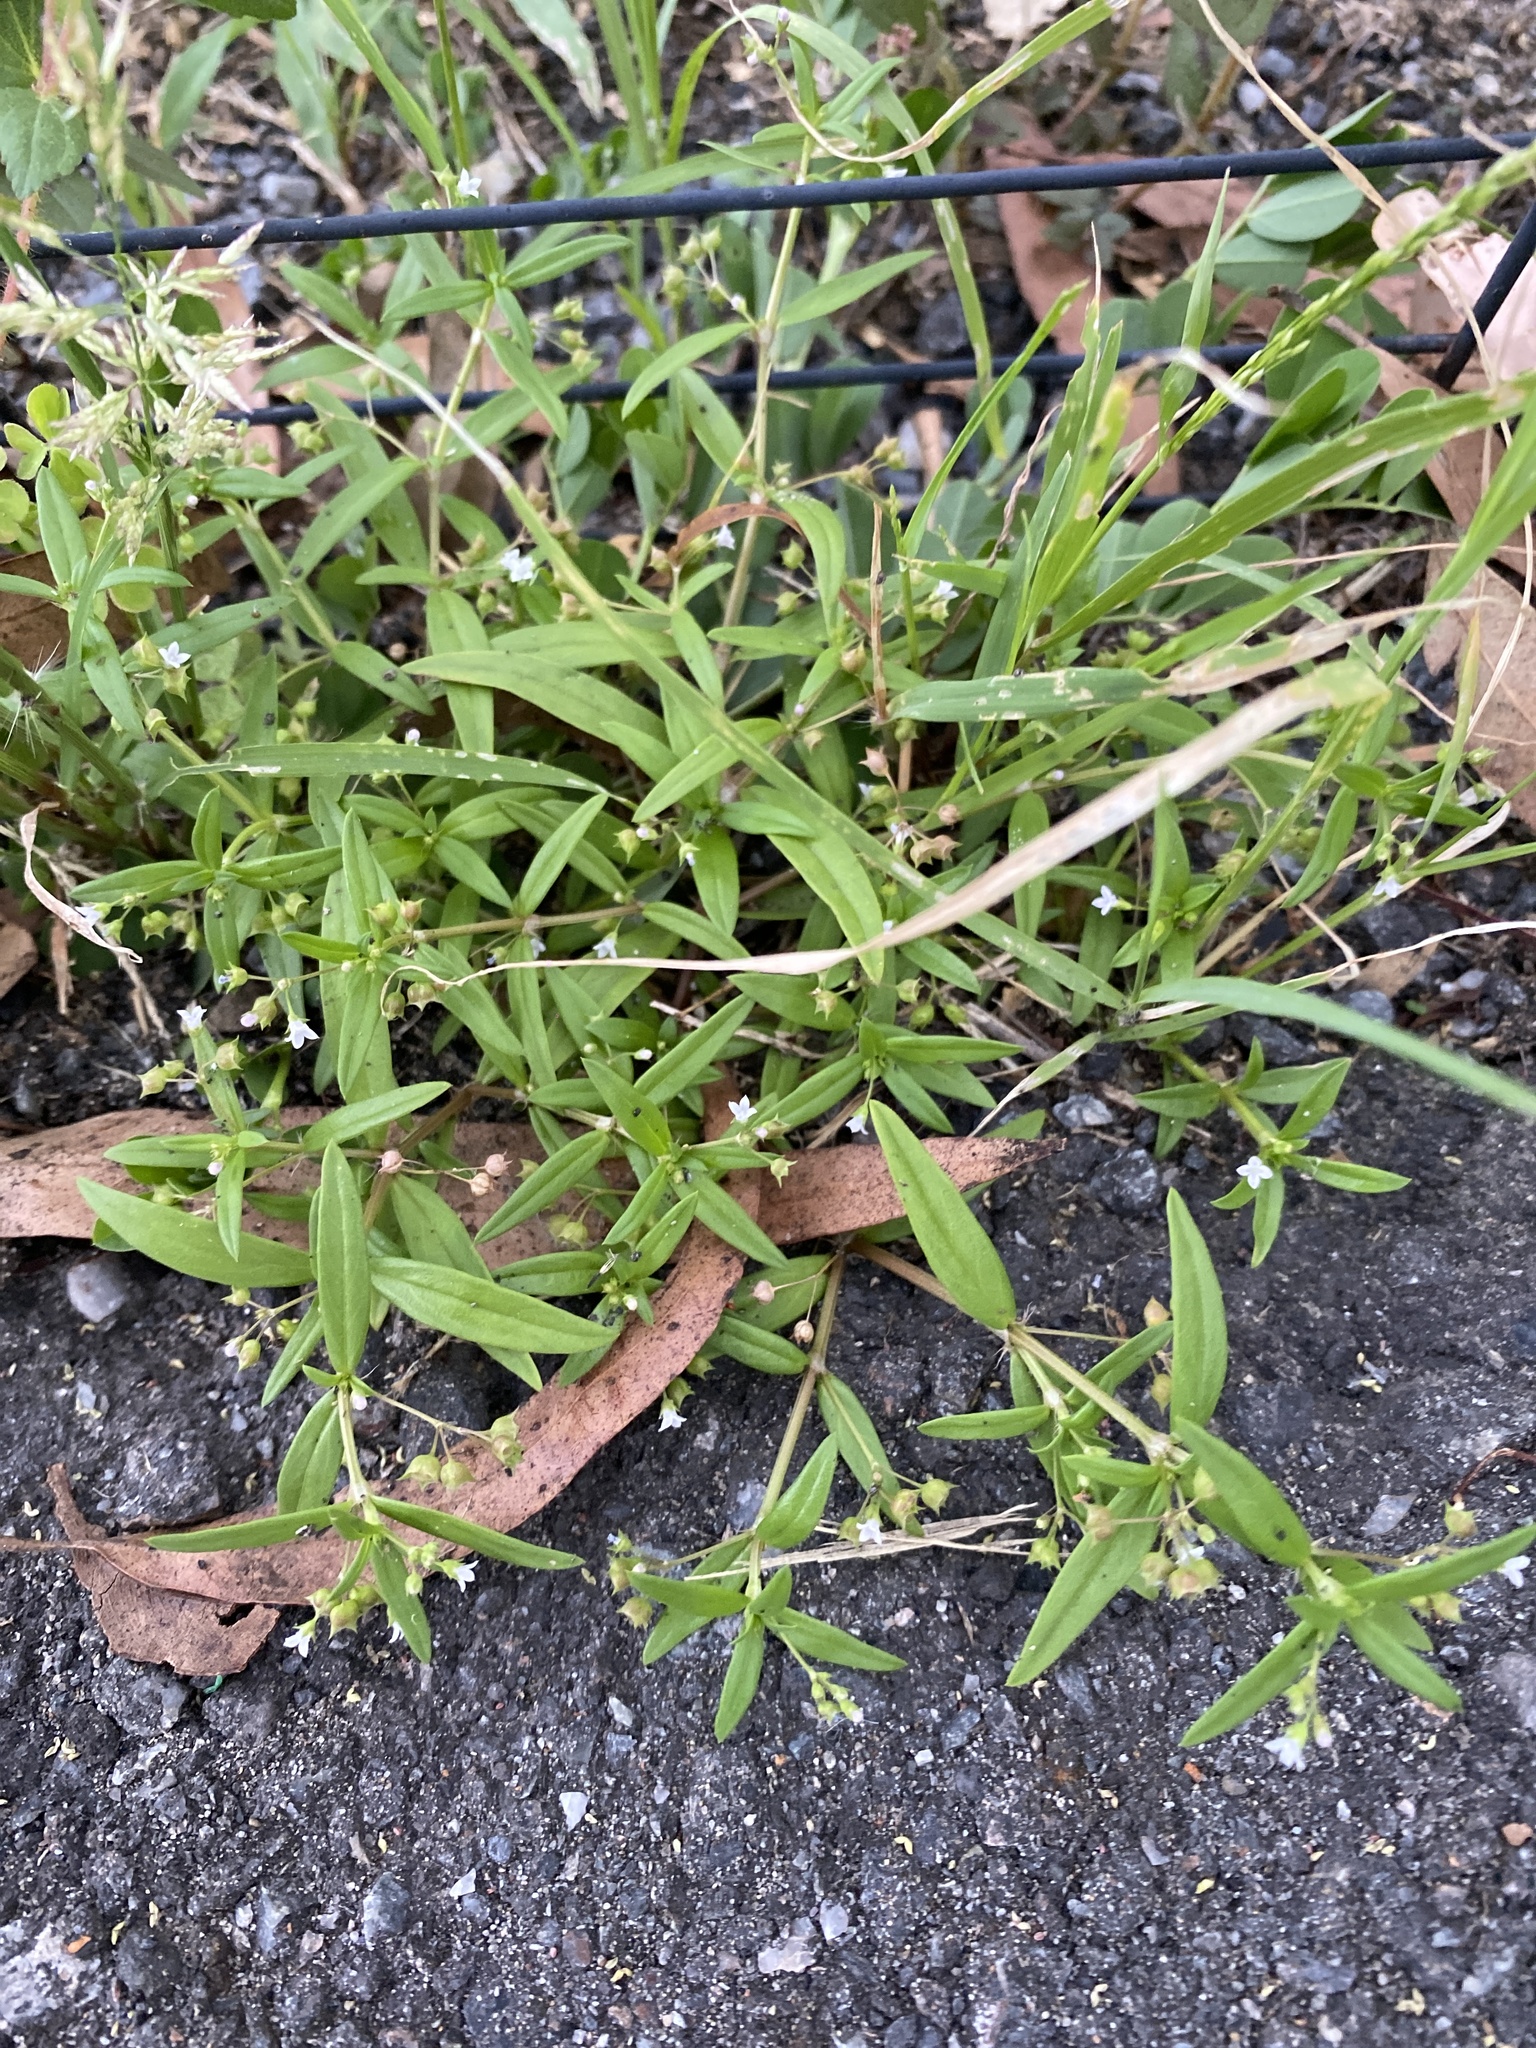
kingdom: Plantae
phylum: Tracheophyta
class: Magnoliopsida
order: Gentianales
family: Rubiaceae
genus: Oldenlandia
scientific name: Oldenlandia corymbosa
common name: Flat-top mille graines
